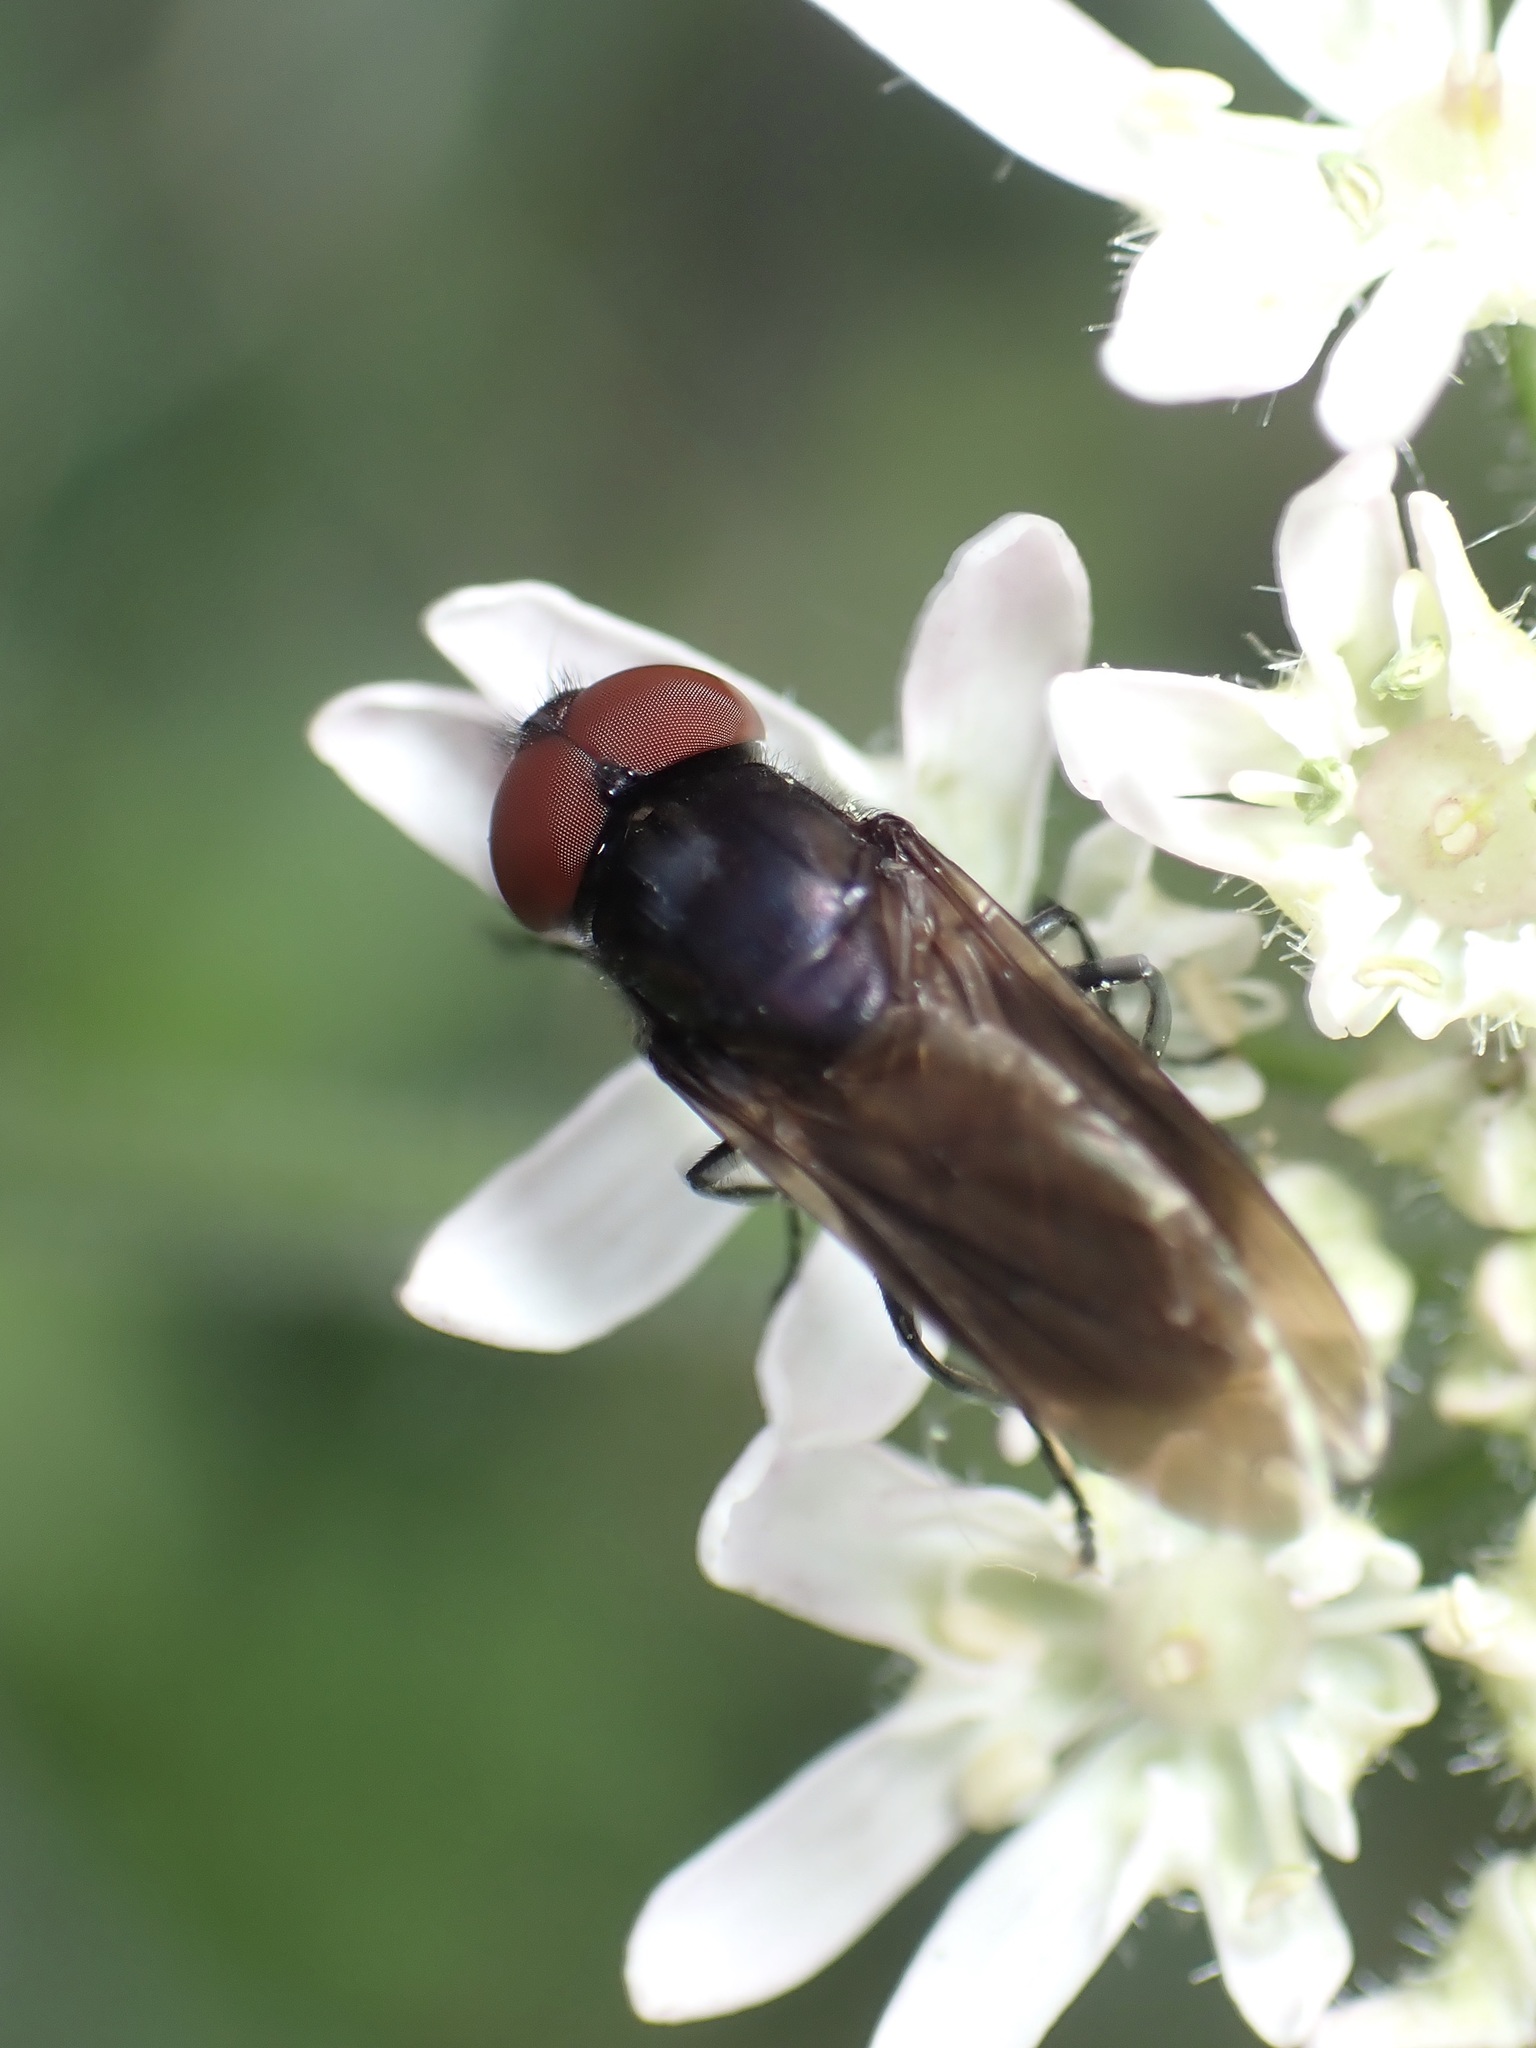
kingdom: Animalia
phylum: Arthropoda
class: Insecta
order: Diptera
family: Syrphidae
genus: Chrysogaster
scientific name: Chrysogaster solstitialis
